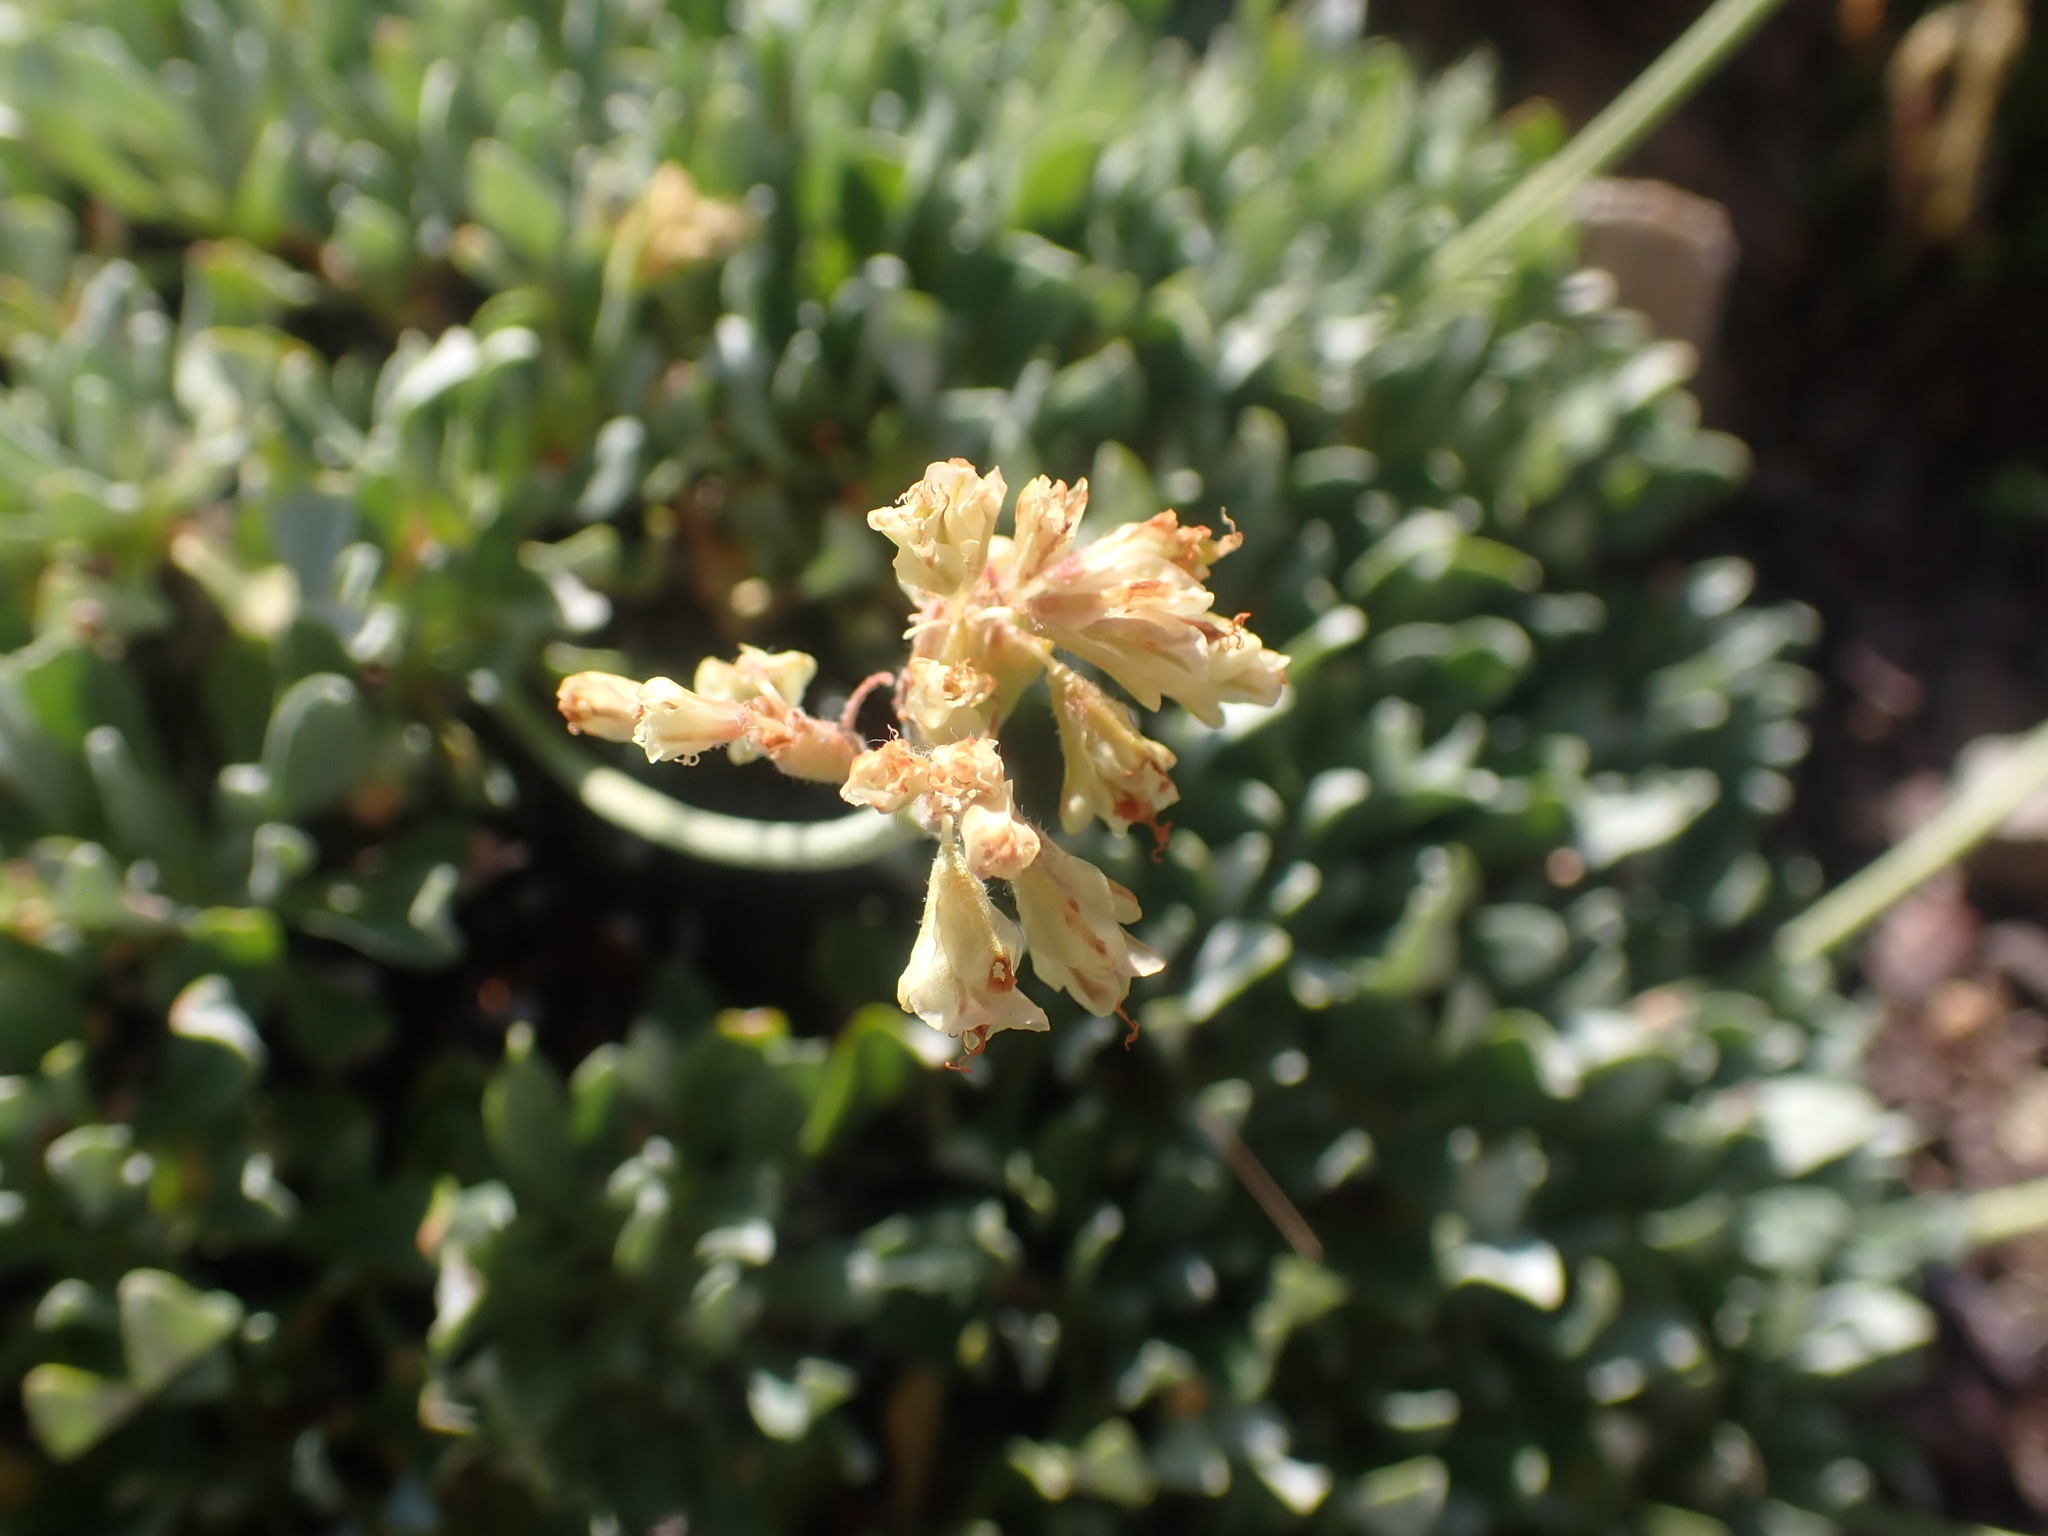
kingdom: Plantae
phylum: Tracheophyta
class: Magnoliopsida
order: Caryophyllales
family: Polygonaceae
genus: Eriogonum
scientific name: Eriogonum androsaceum
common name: Rock-jasmine wild buckwheat
